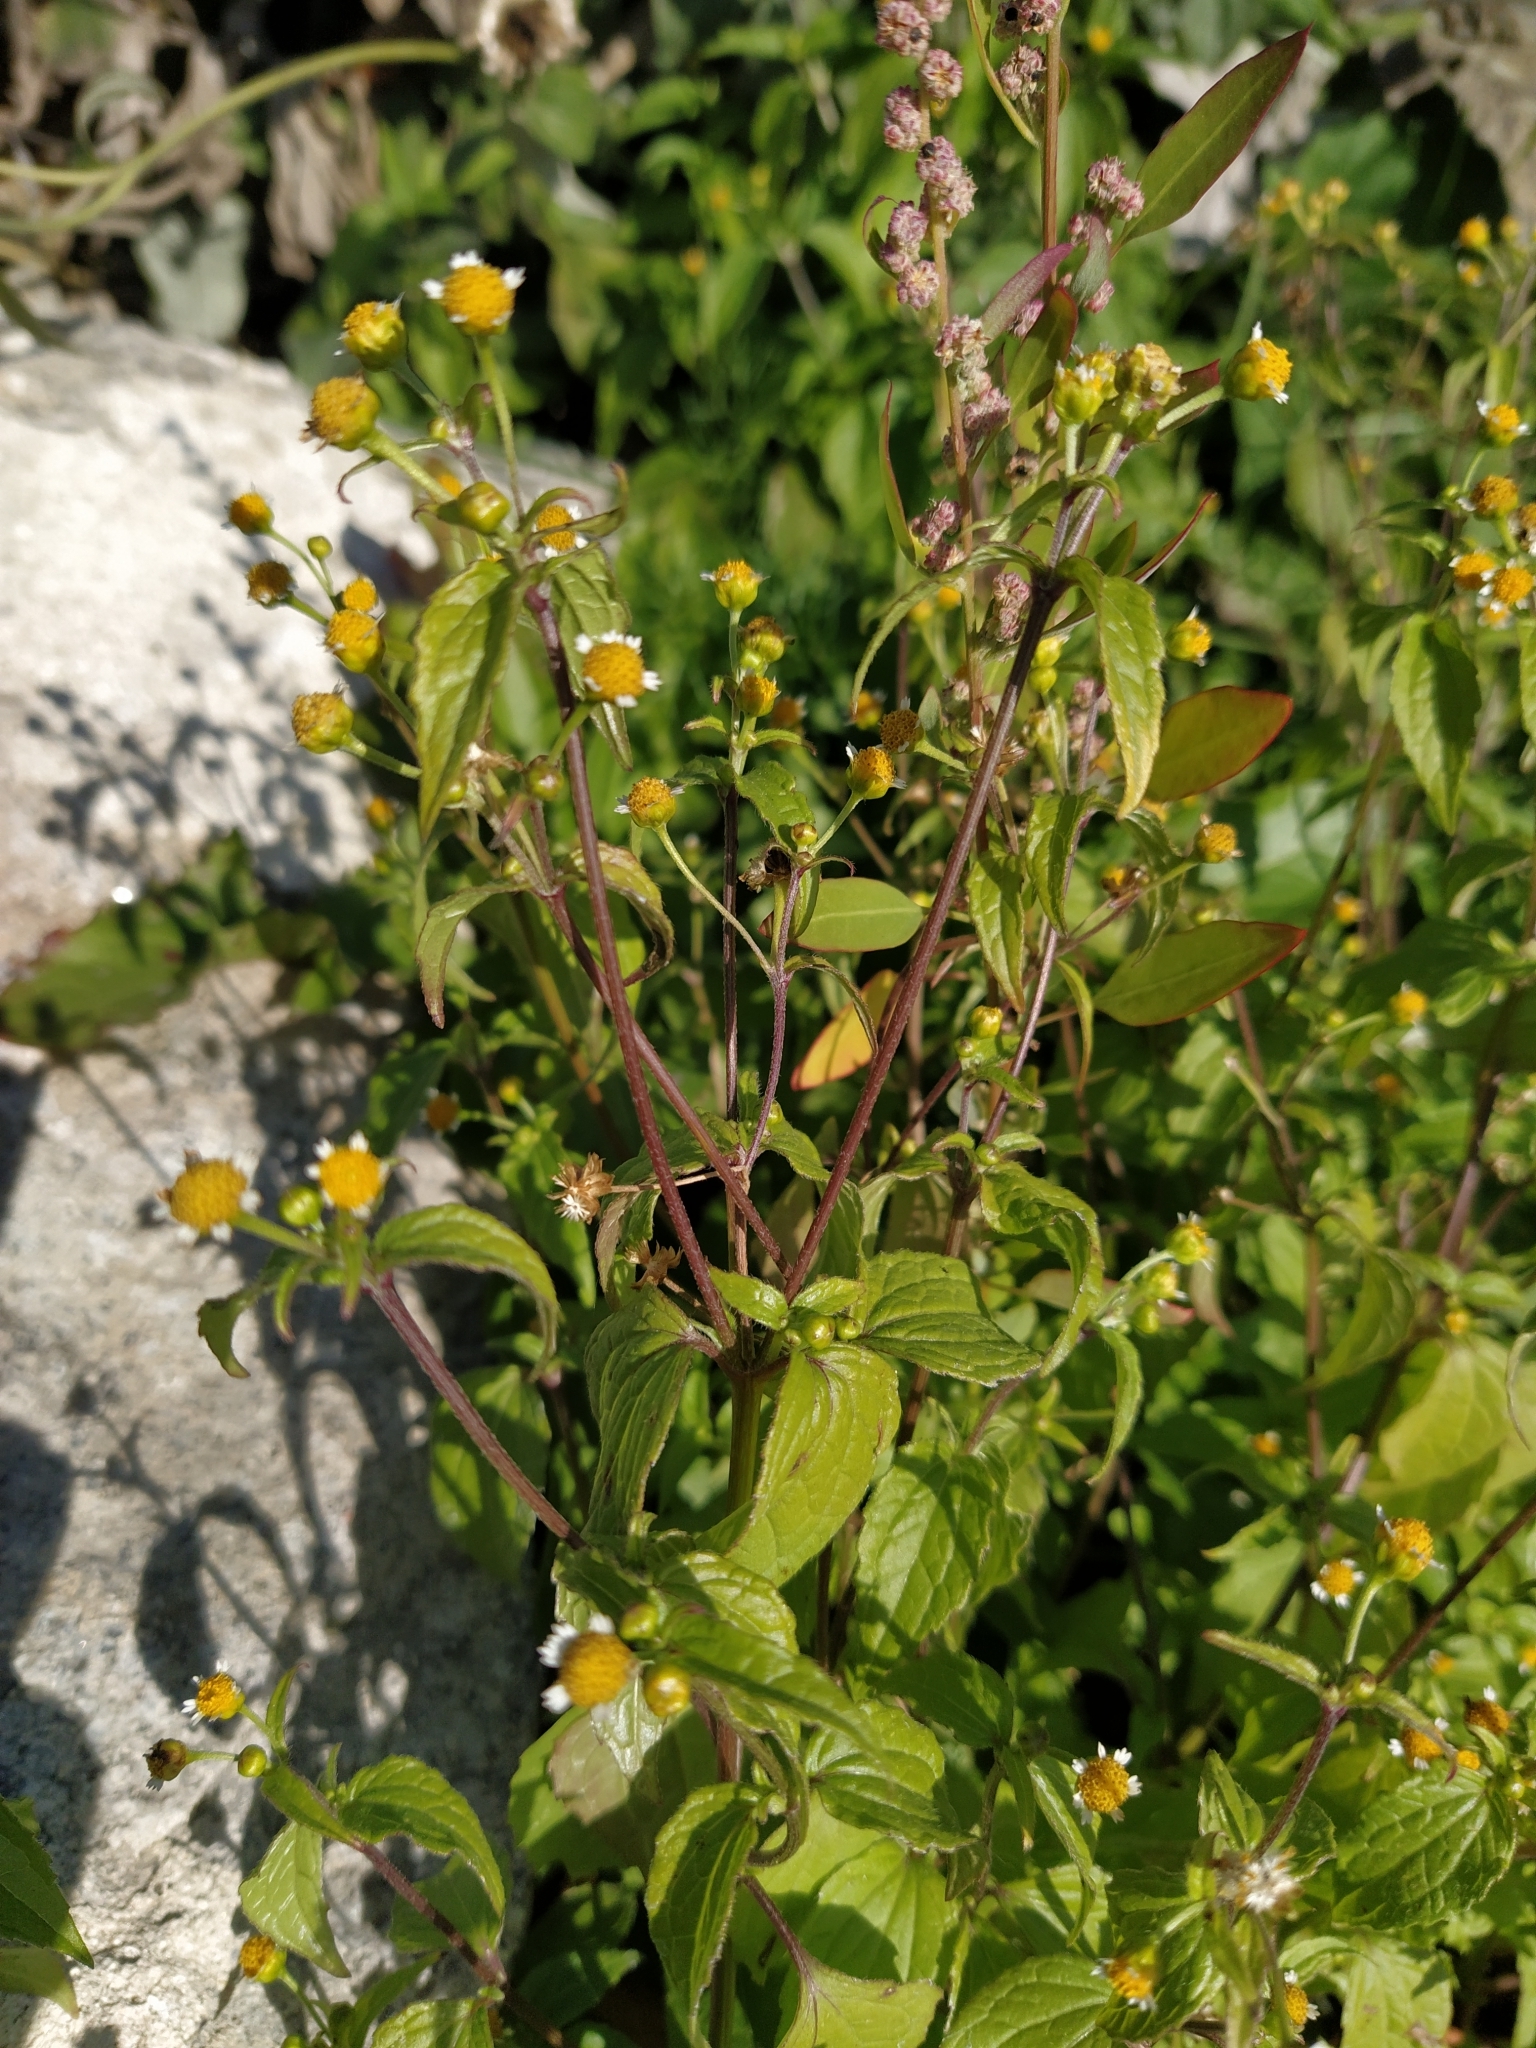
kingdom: Plantae
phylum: Tracheophyta
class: Magnoliopsida
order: Asterales
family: Asteraceae
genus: Galinsoga
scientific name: Galinsoga parviflora
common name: Gallant soldier
